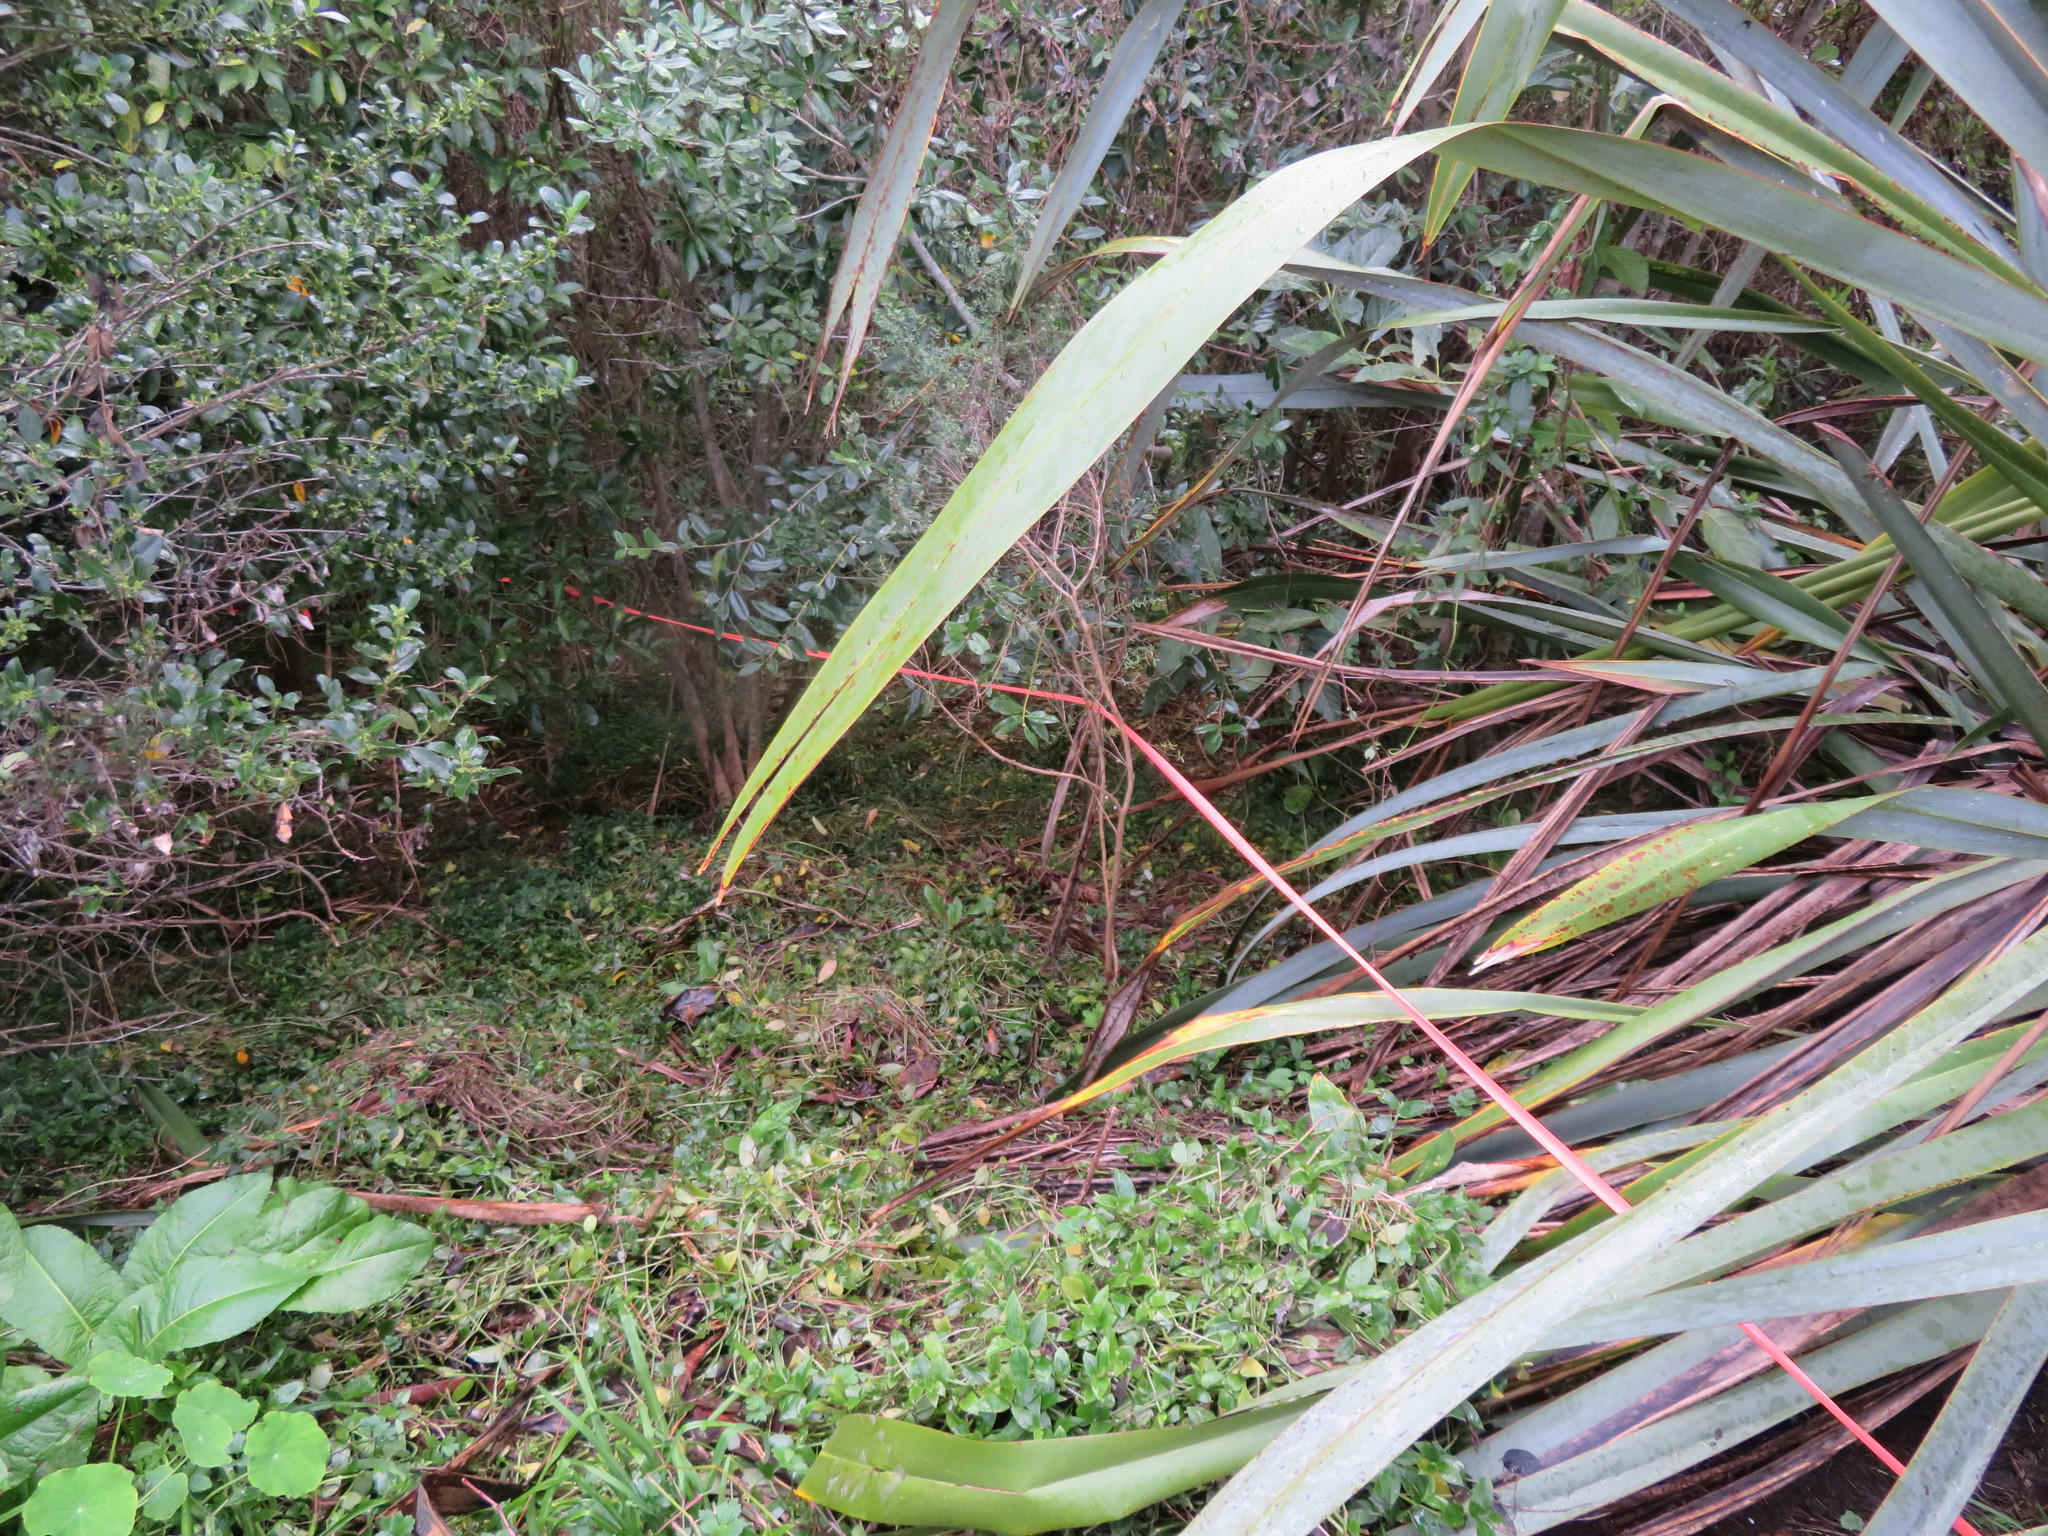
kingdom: Plantae
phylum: Tracheophyta
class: Liliopsida
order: Commelinales
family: Commelinaceae
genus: Tradescantia
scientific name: Tradescantia fluminensis
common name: Wandering-jew
